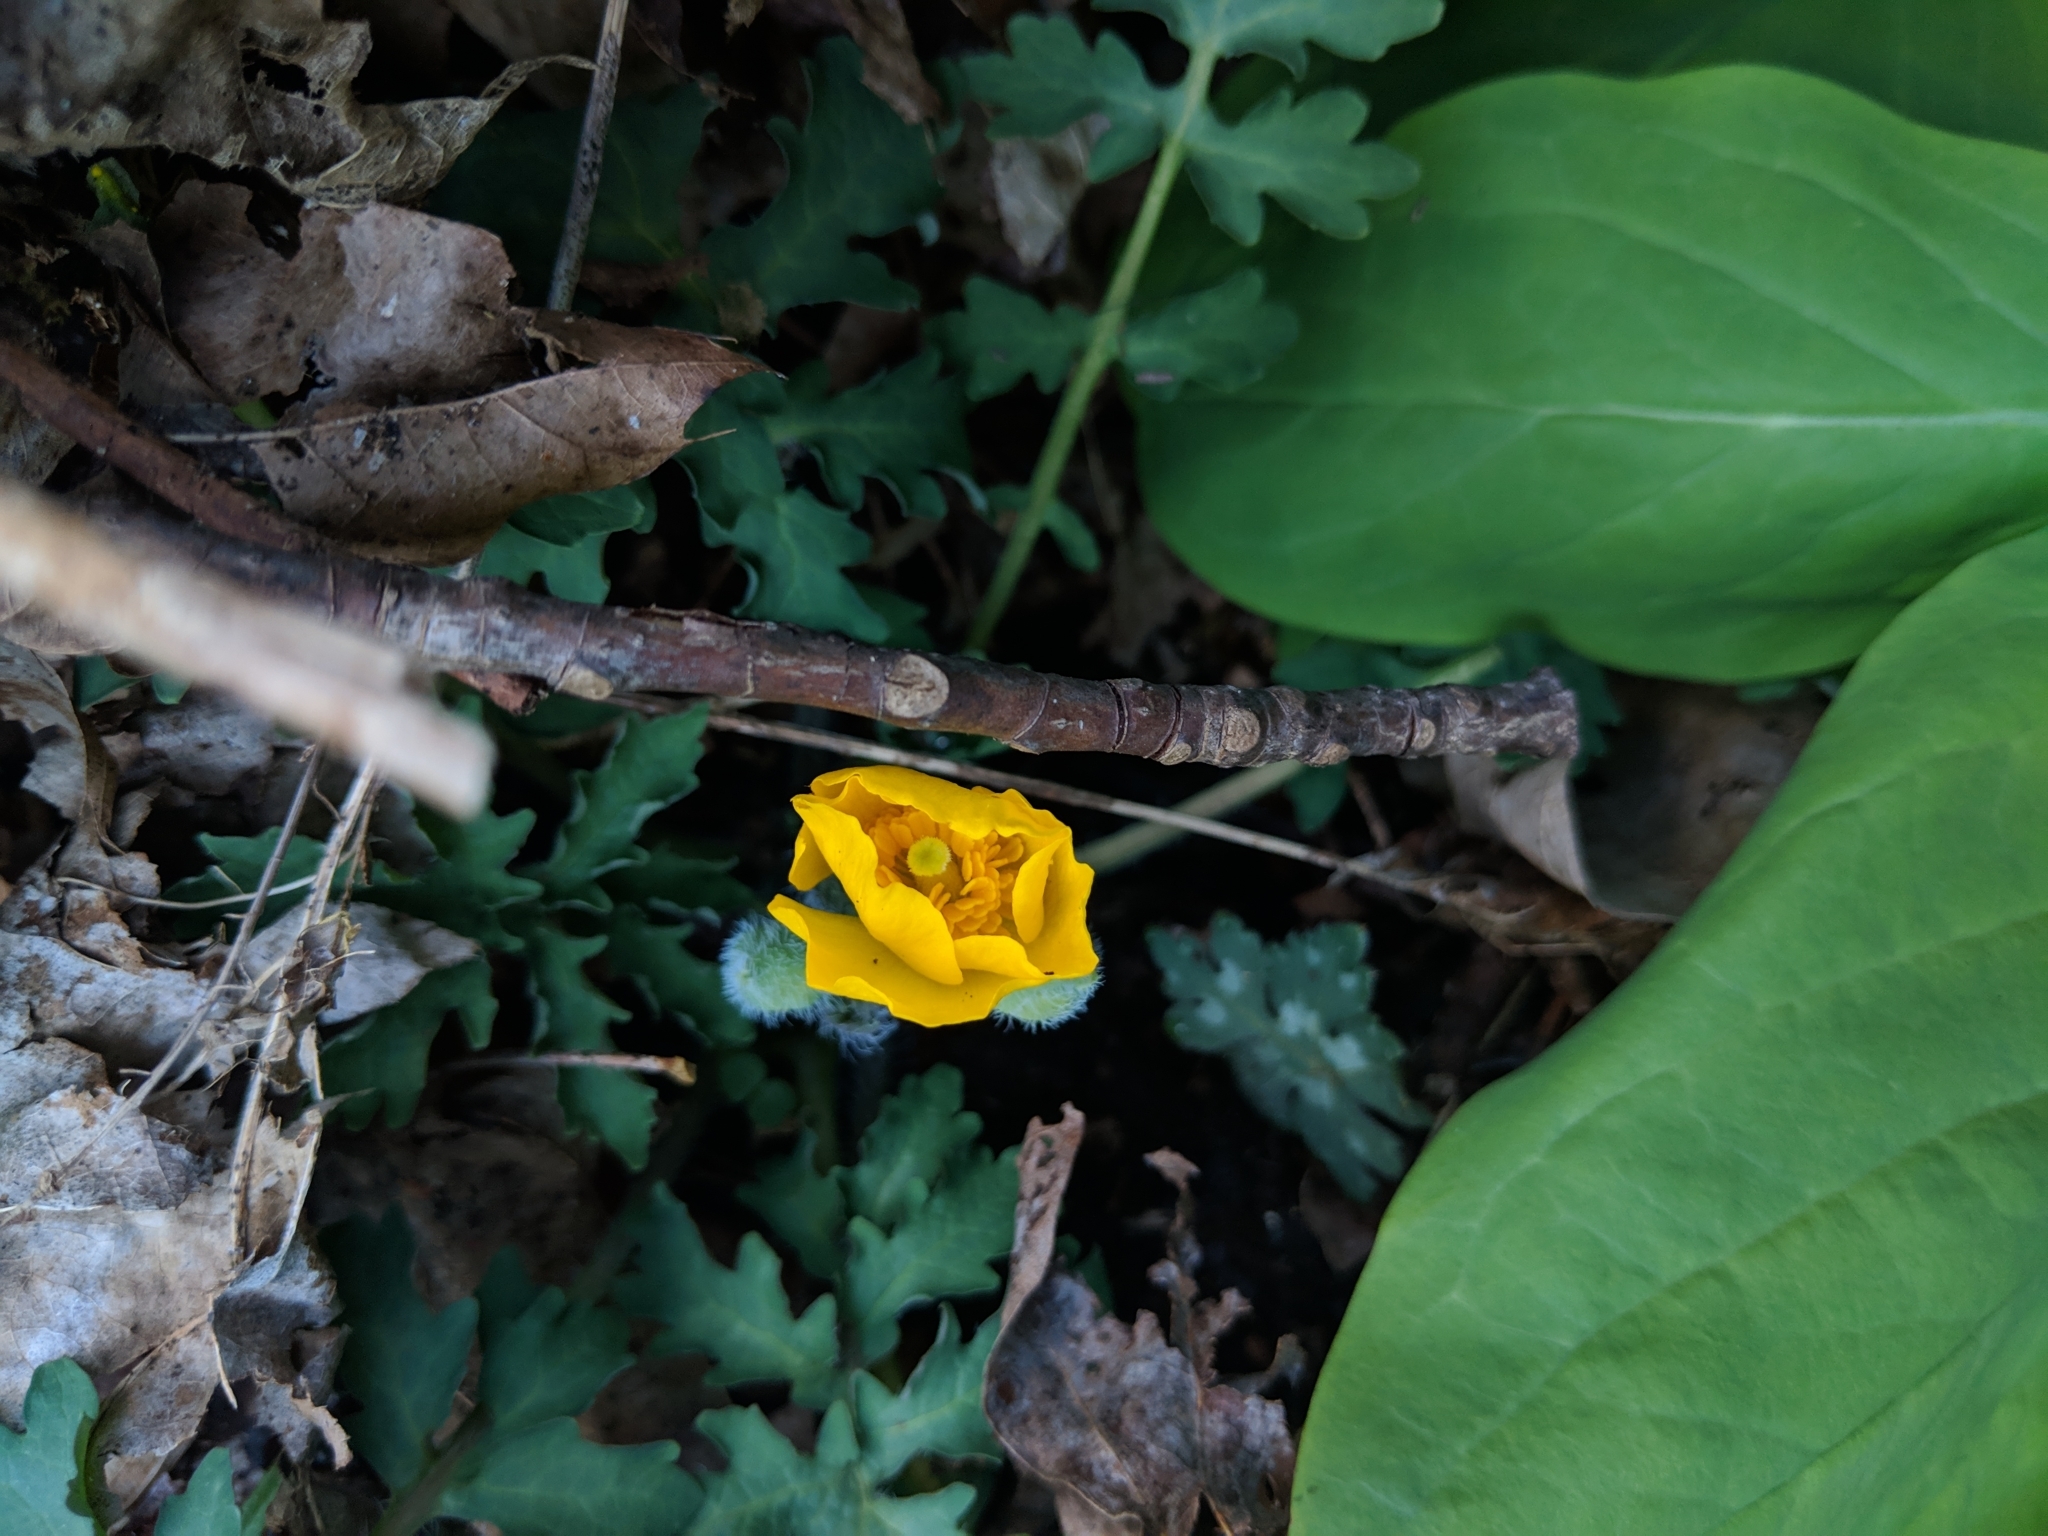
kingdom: Plantae
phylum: Tracheophyta
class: Magnoliopsida
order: Ranunculales
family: Papaveraceae
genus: Stylophorum
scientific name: Stylophorum diphyllum
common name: Celandine poppy
